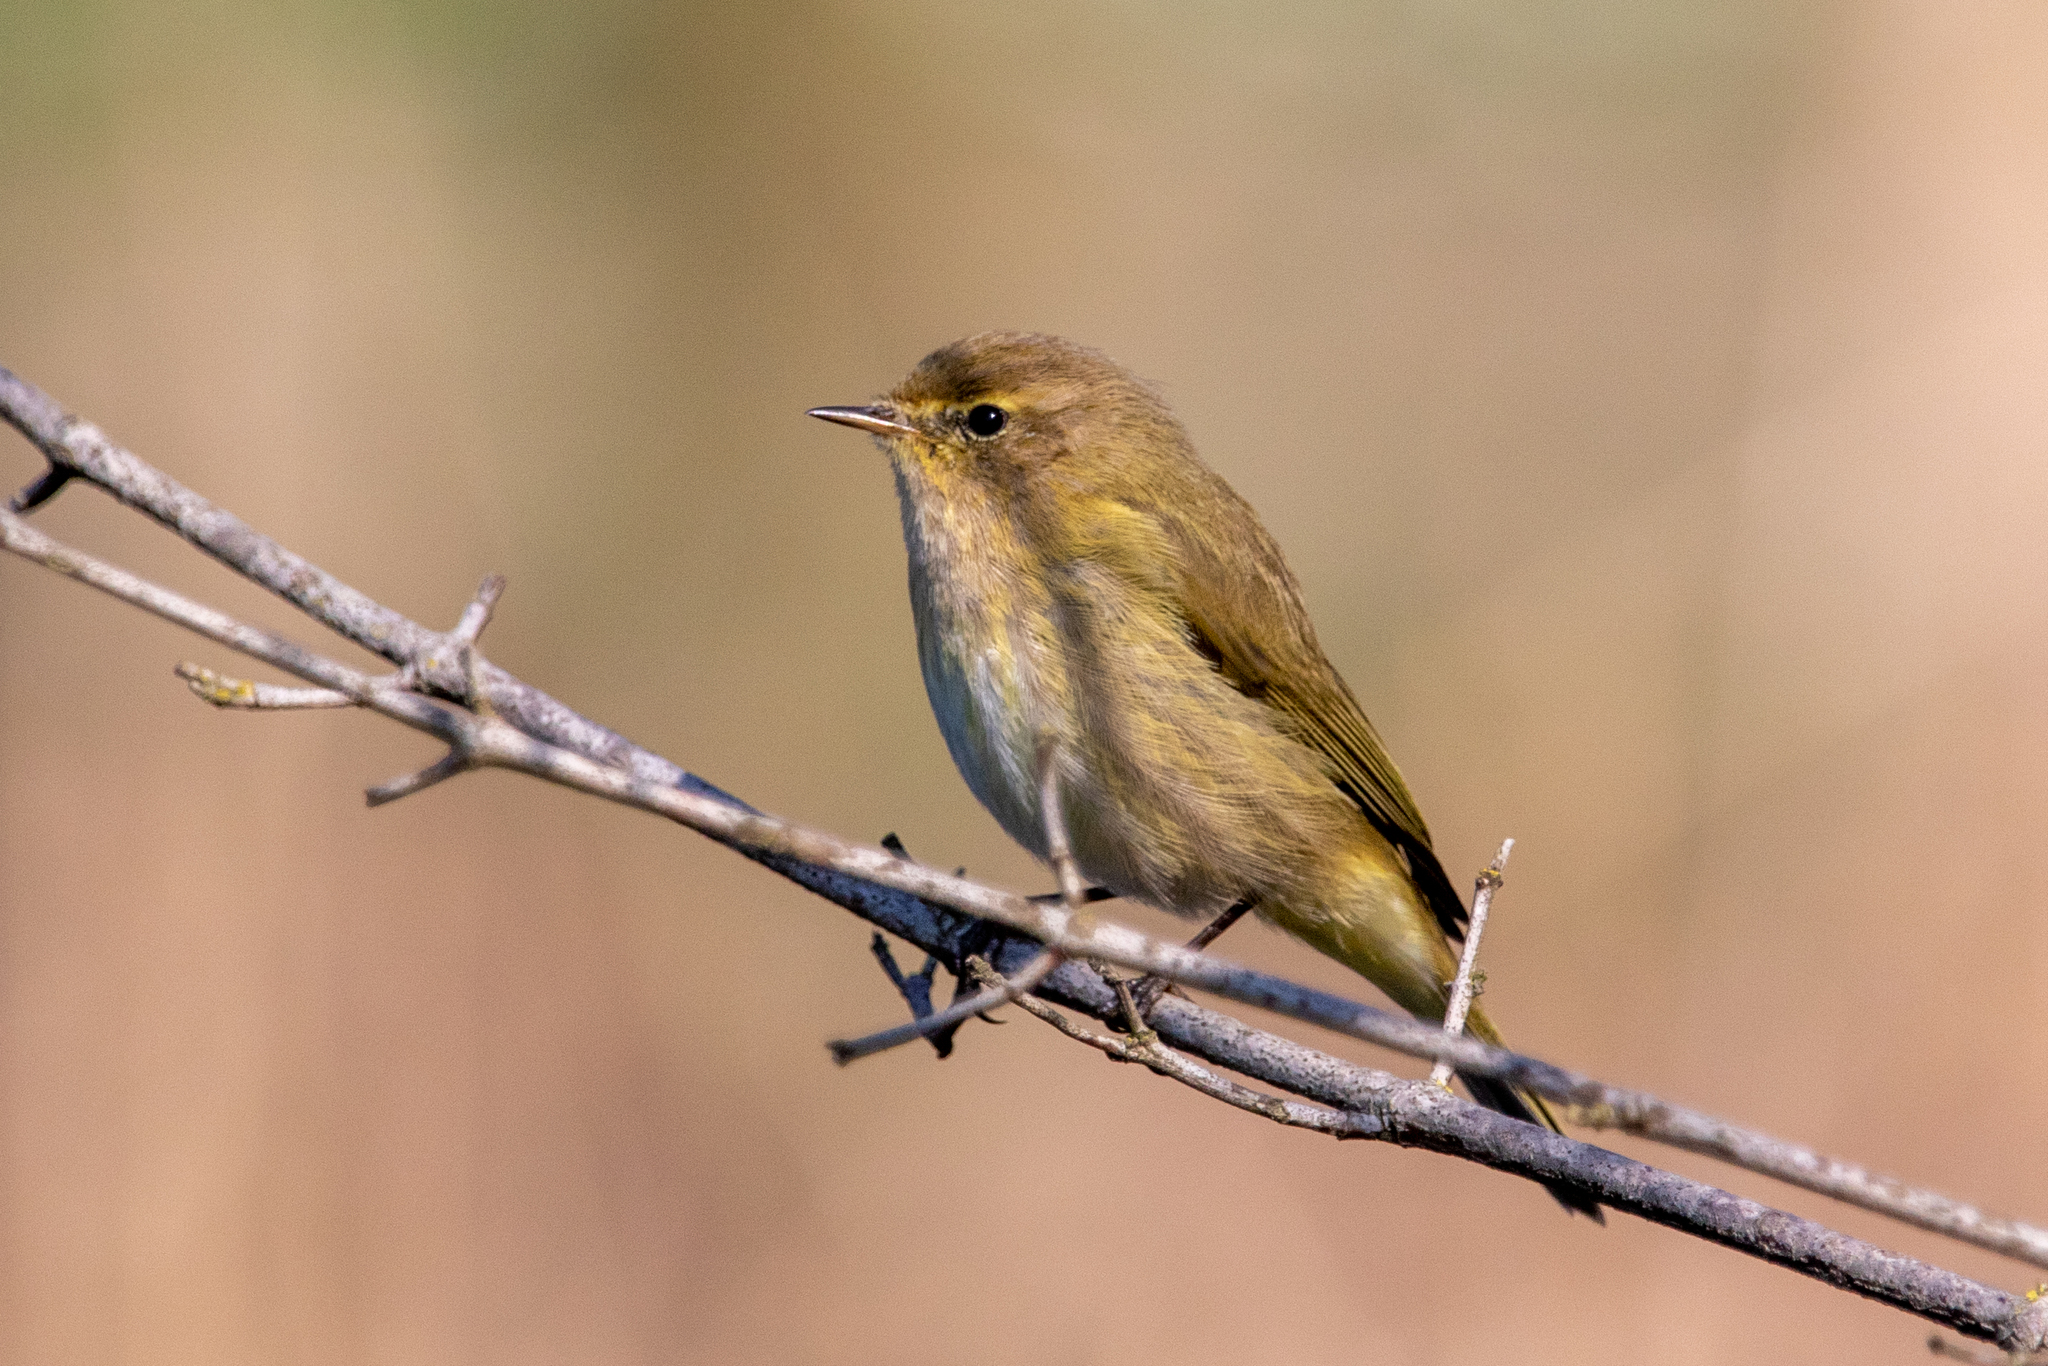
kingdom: Animalia
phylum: Chordata
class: Aves
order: Passeriformes
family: Phylloscopidae
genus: Phylloscopus
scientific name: Phylloscopus collybita
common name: Common chiffchaff
